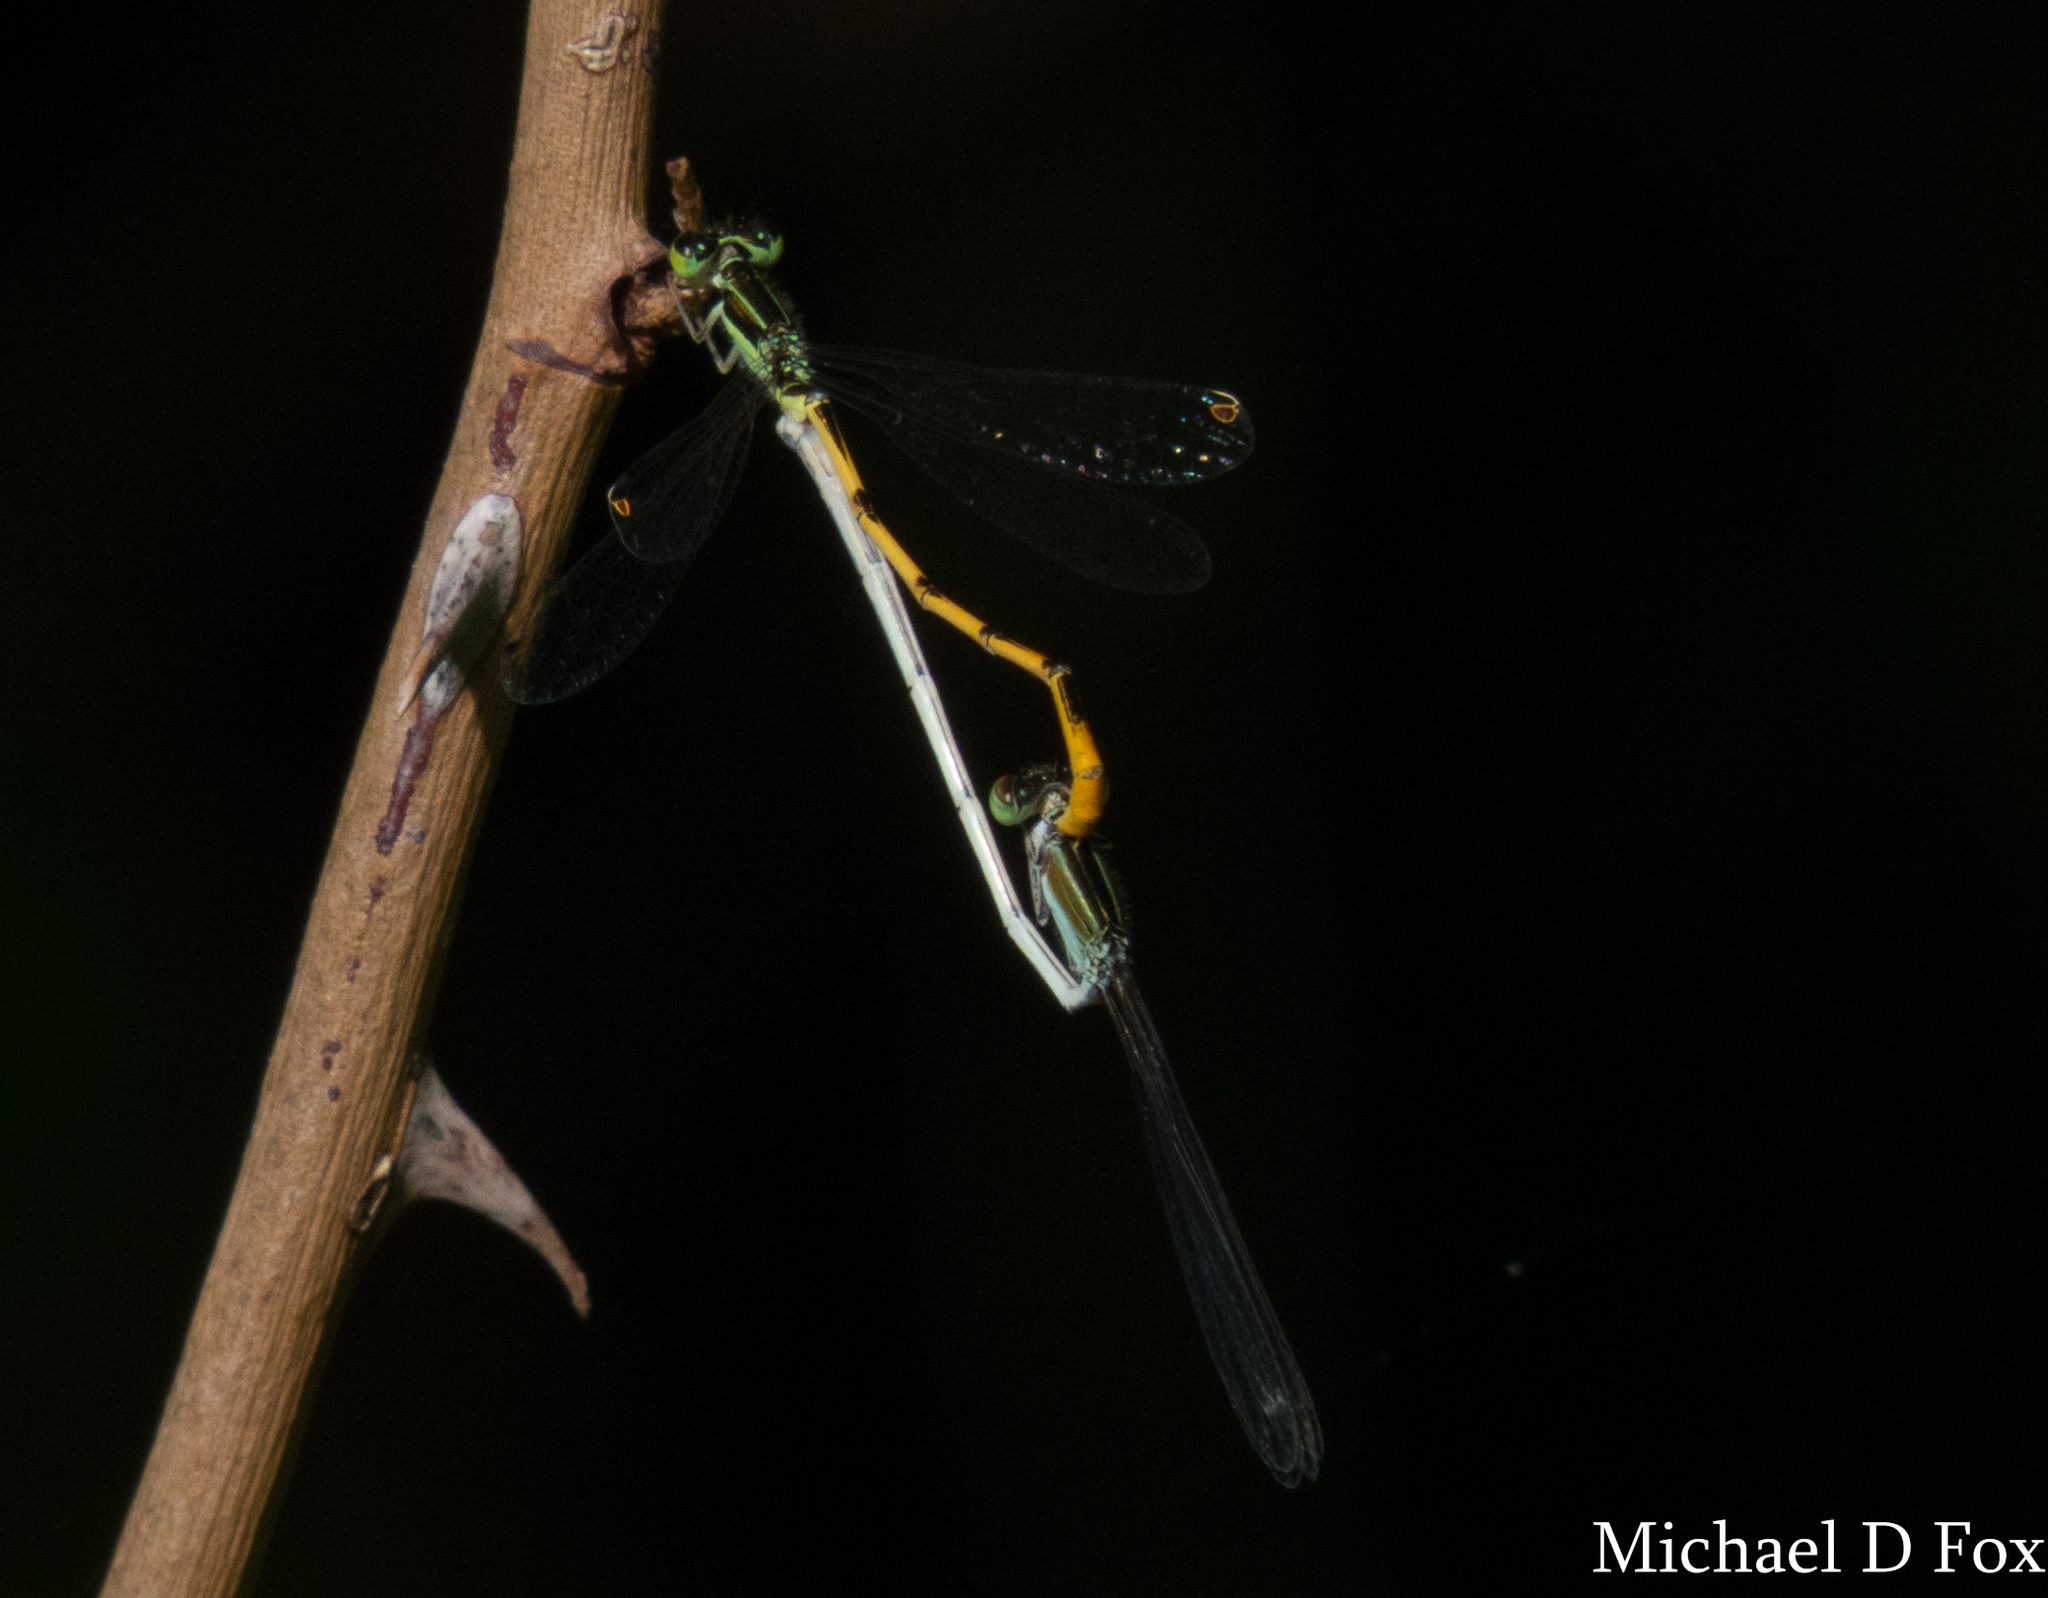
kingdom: Animalia
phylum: Arthropoda
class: Insecta
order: Odonata
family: Coenagrionidae
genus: Ischnura
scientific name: Ischnura hastata
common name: Citrine forktail
